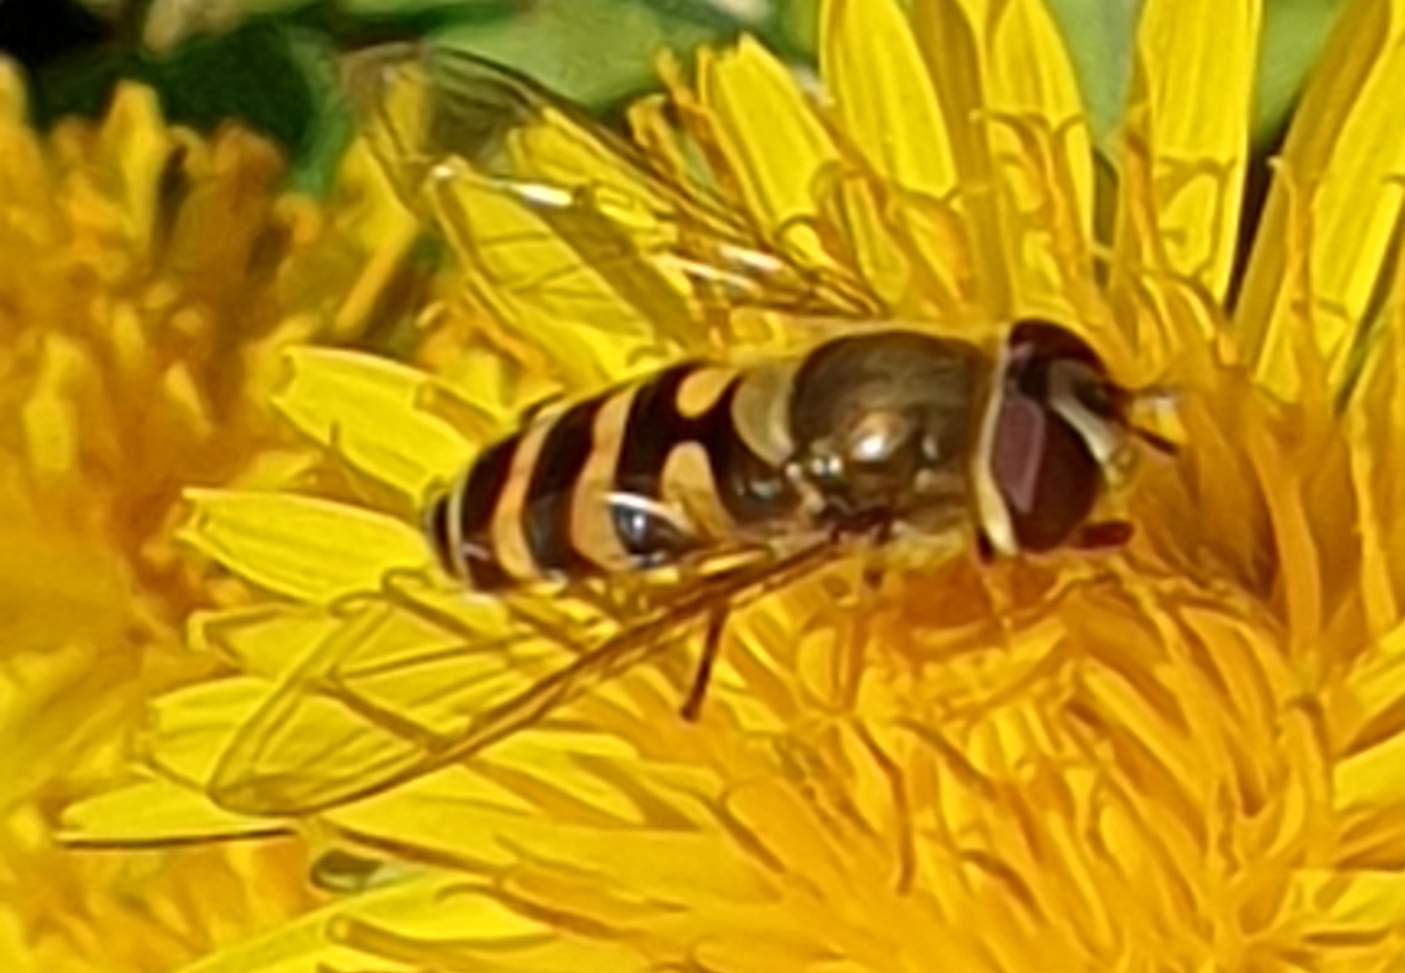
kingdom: Animalia
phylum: Arthropoda
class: Insecta
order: Diptera
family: Syrphidae
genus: Syrphus
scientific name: Syrphus
